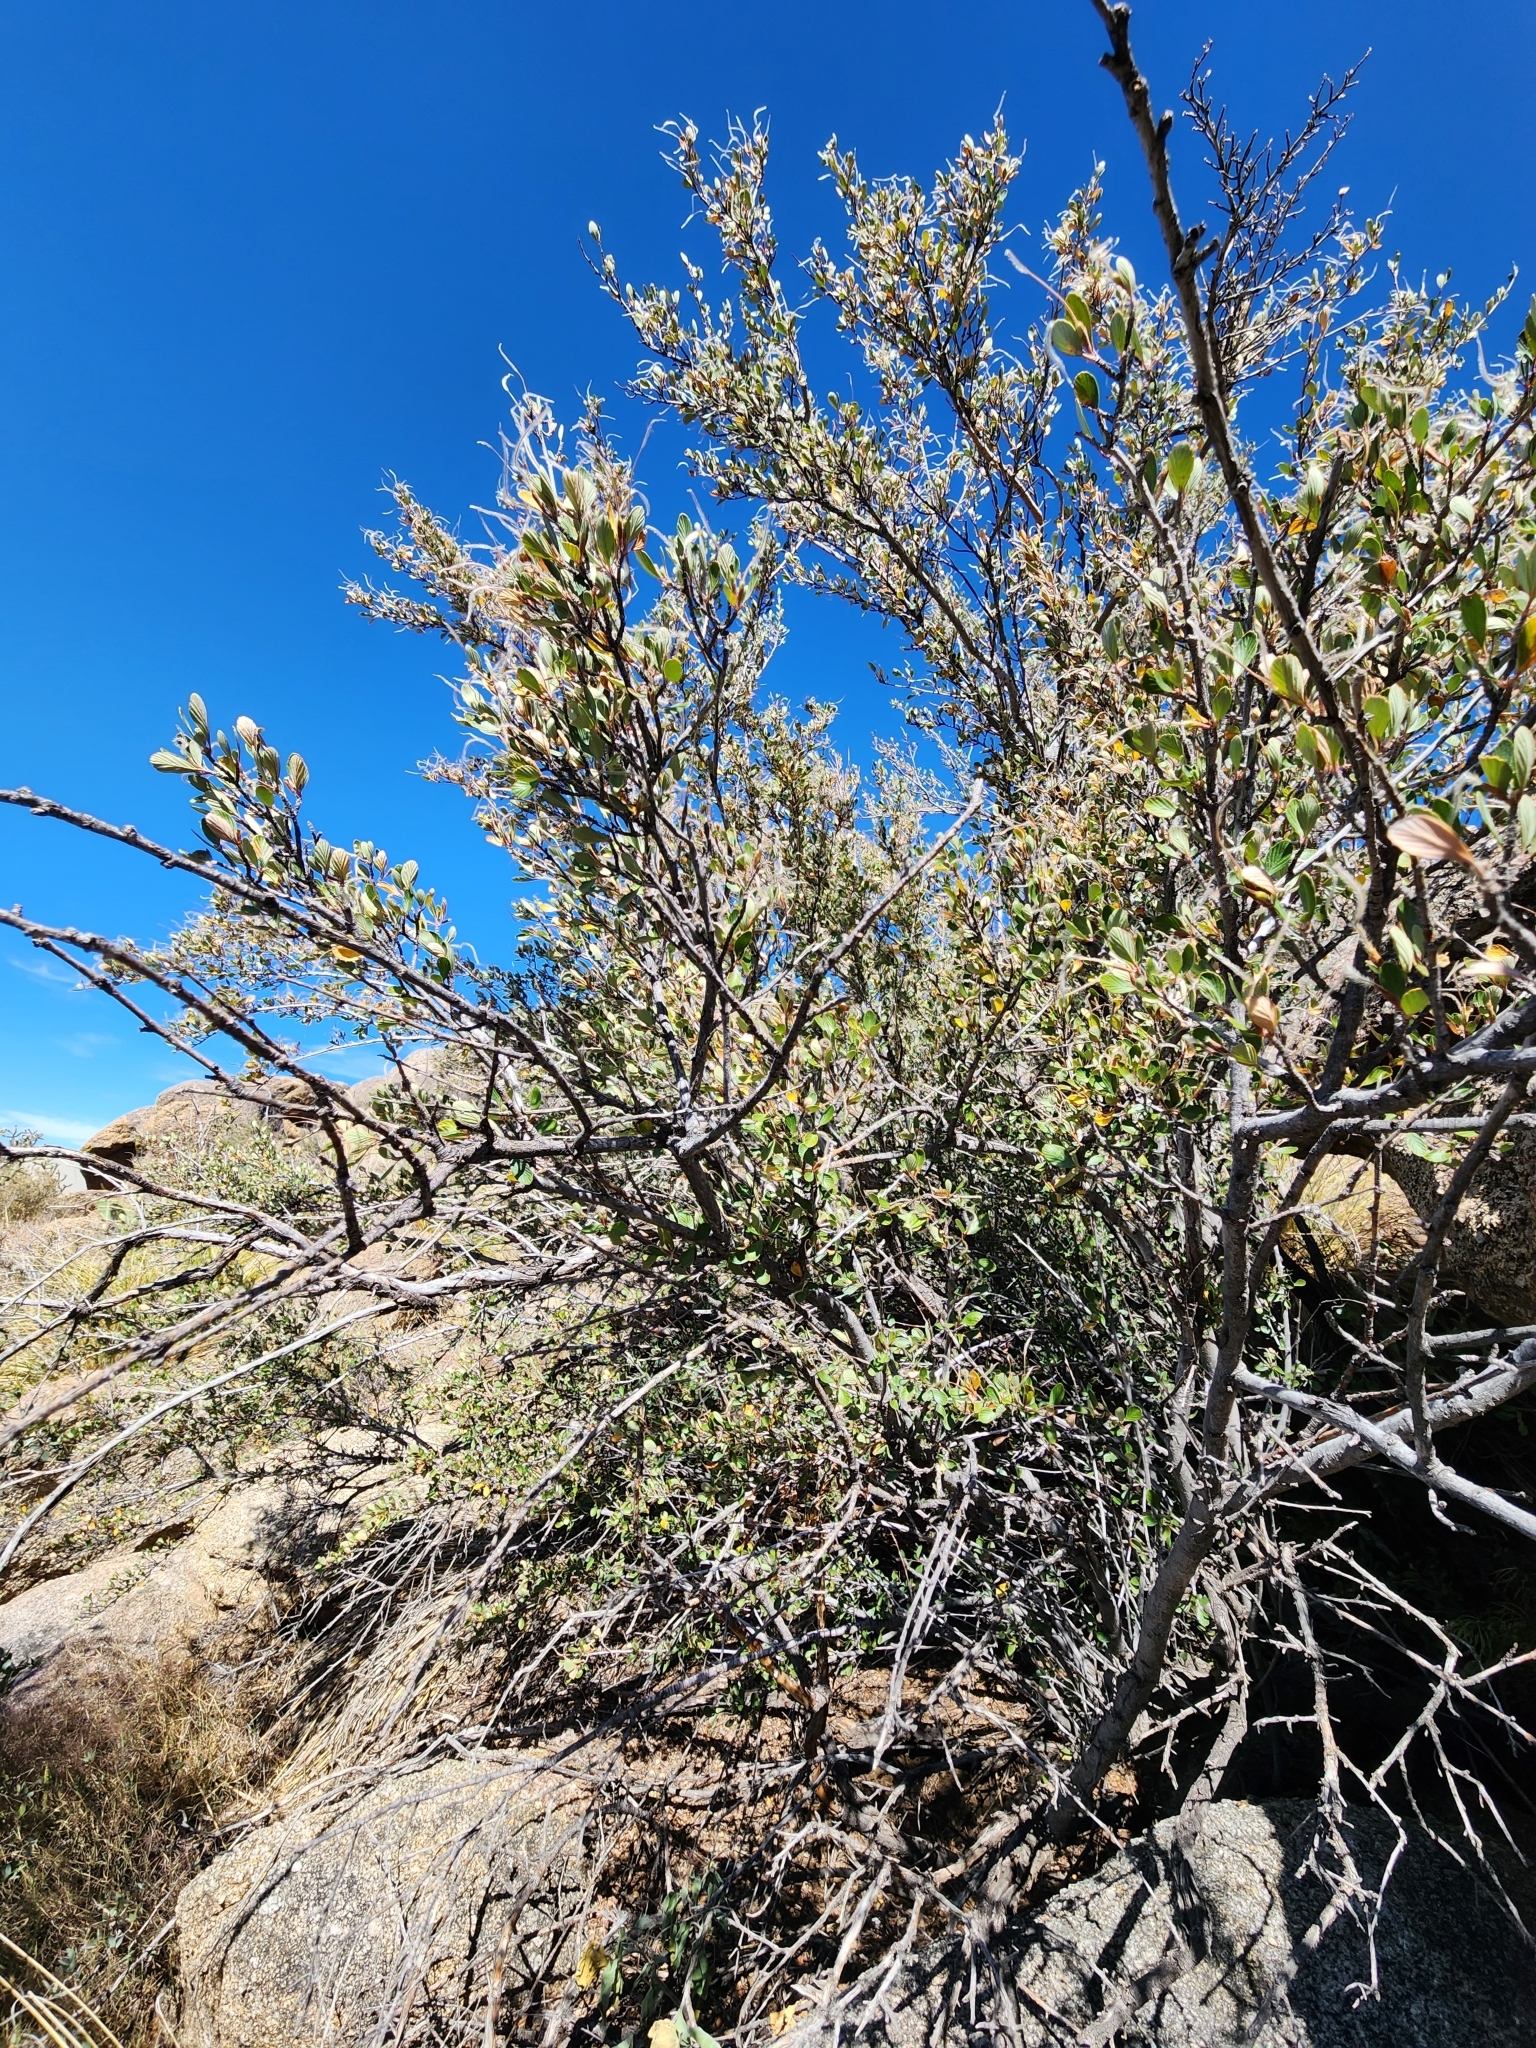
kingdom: Plantae
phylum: Tracheophyta
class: Magnoliopsida
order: Rosales
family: Rosaceae
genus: Cercocarpus
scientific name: Cercocarpus breviflorus
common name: Wright's mountain-mahogany
